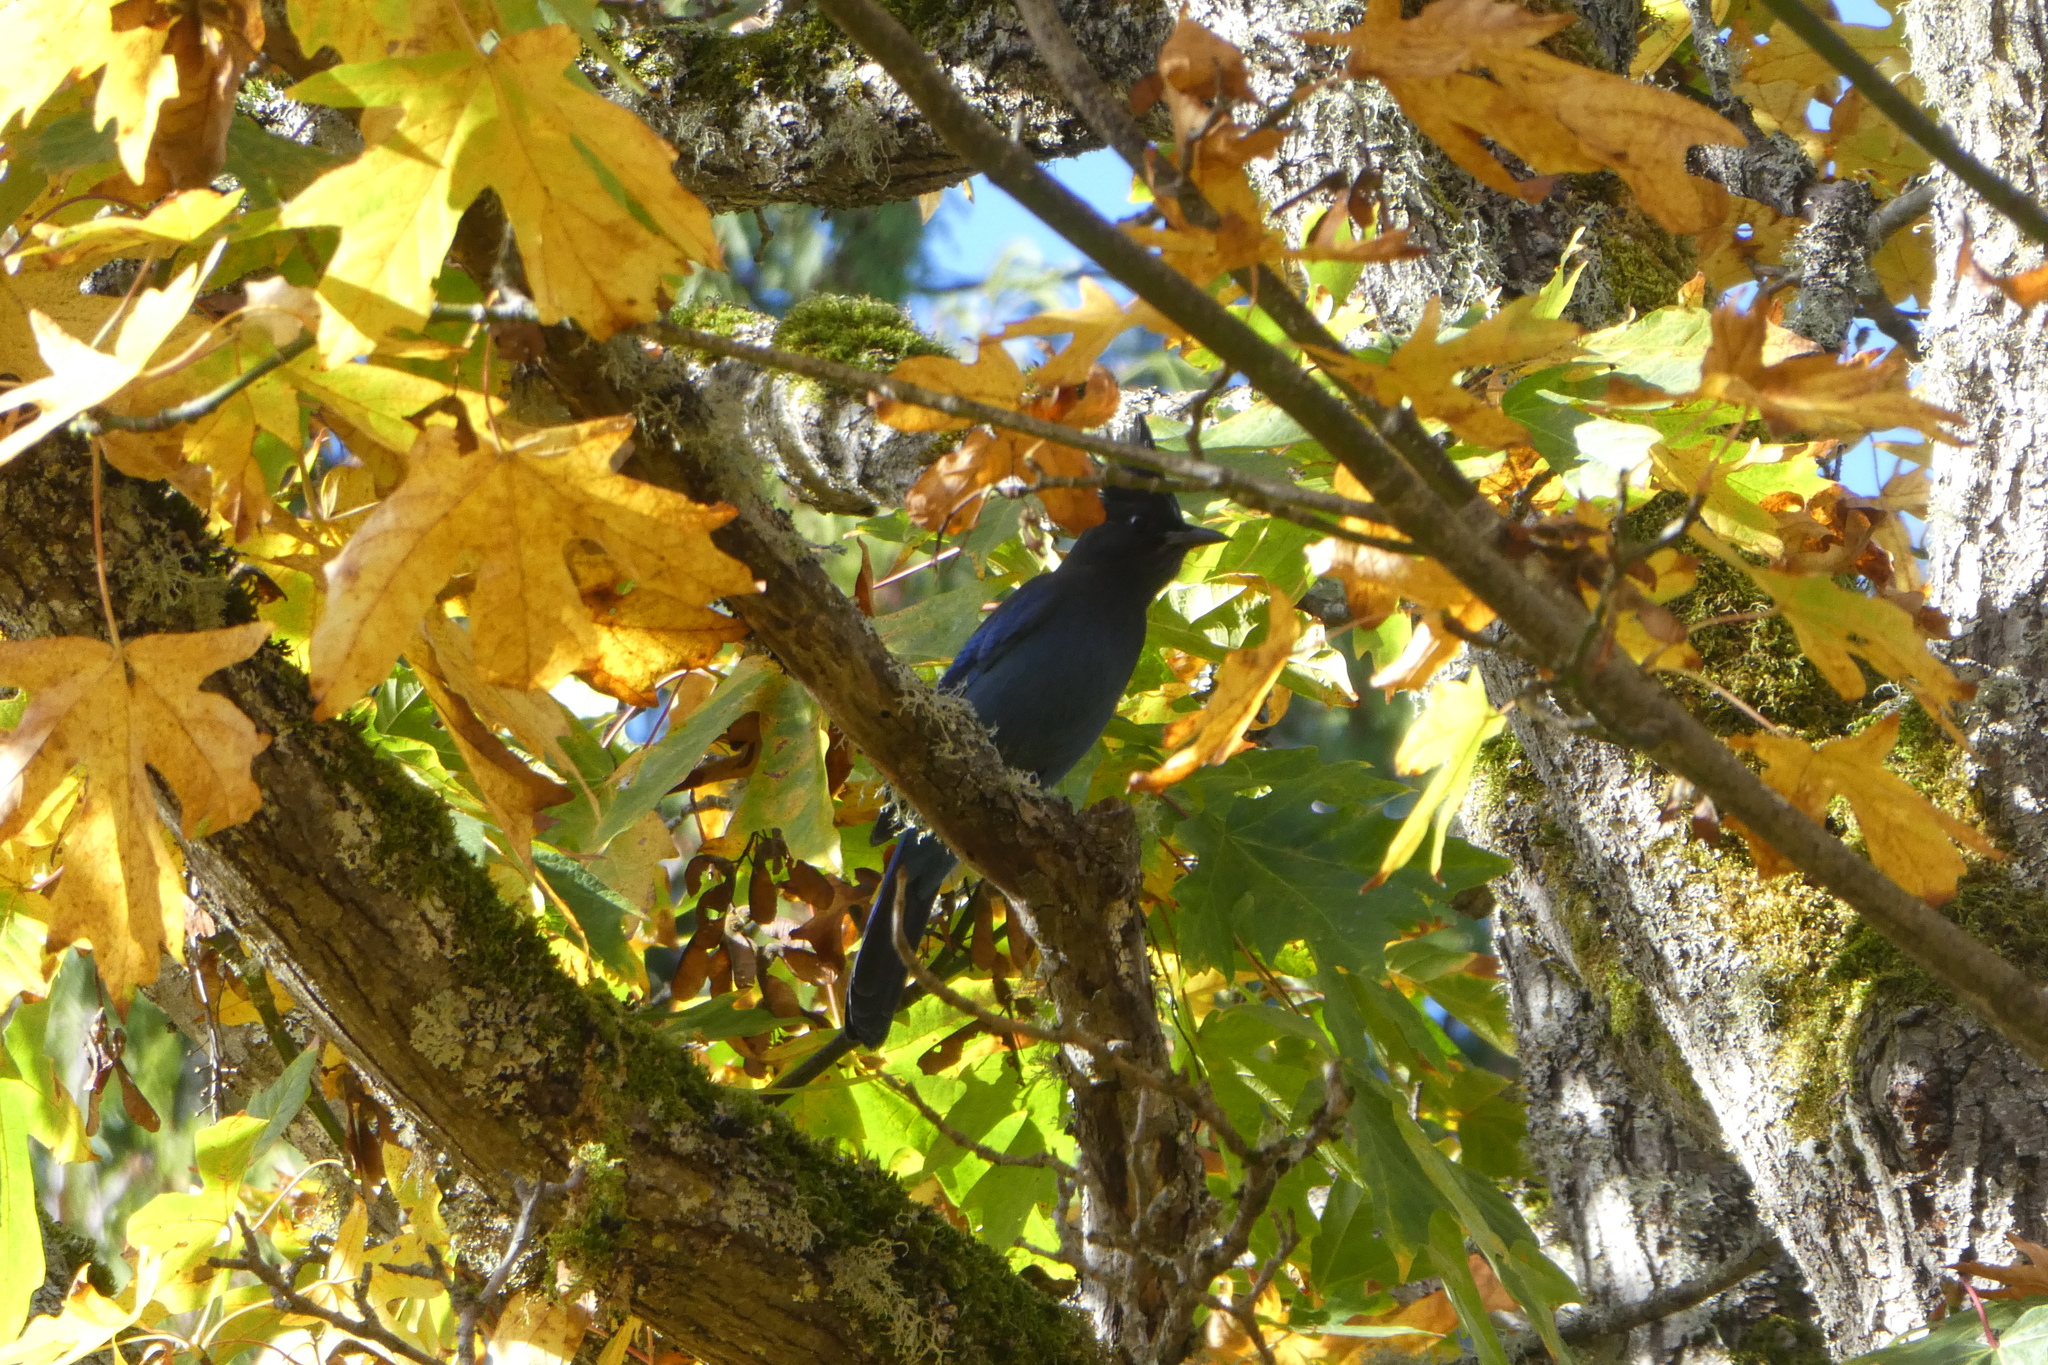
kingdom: Animalia
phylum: Chordata
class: Aves
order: Passeriformes
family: Corvidae
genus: Cyanocitta
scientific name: Cyanocitta stelleri
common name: Steller's jay
